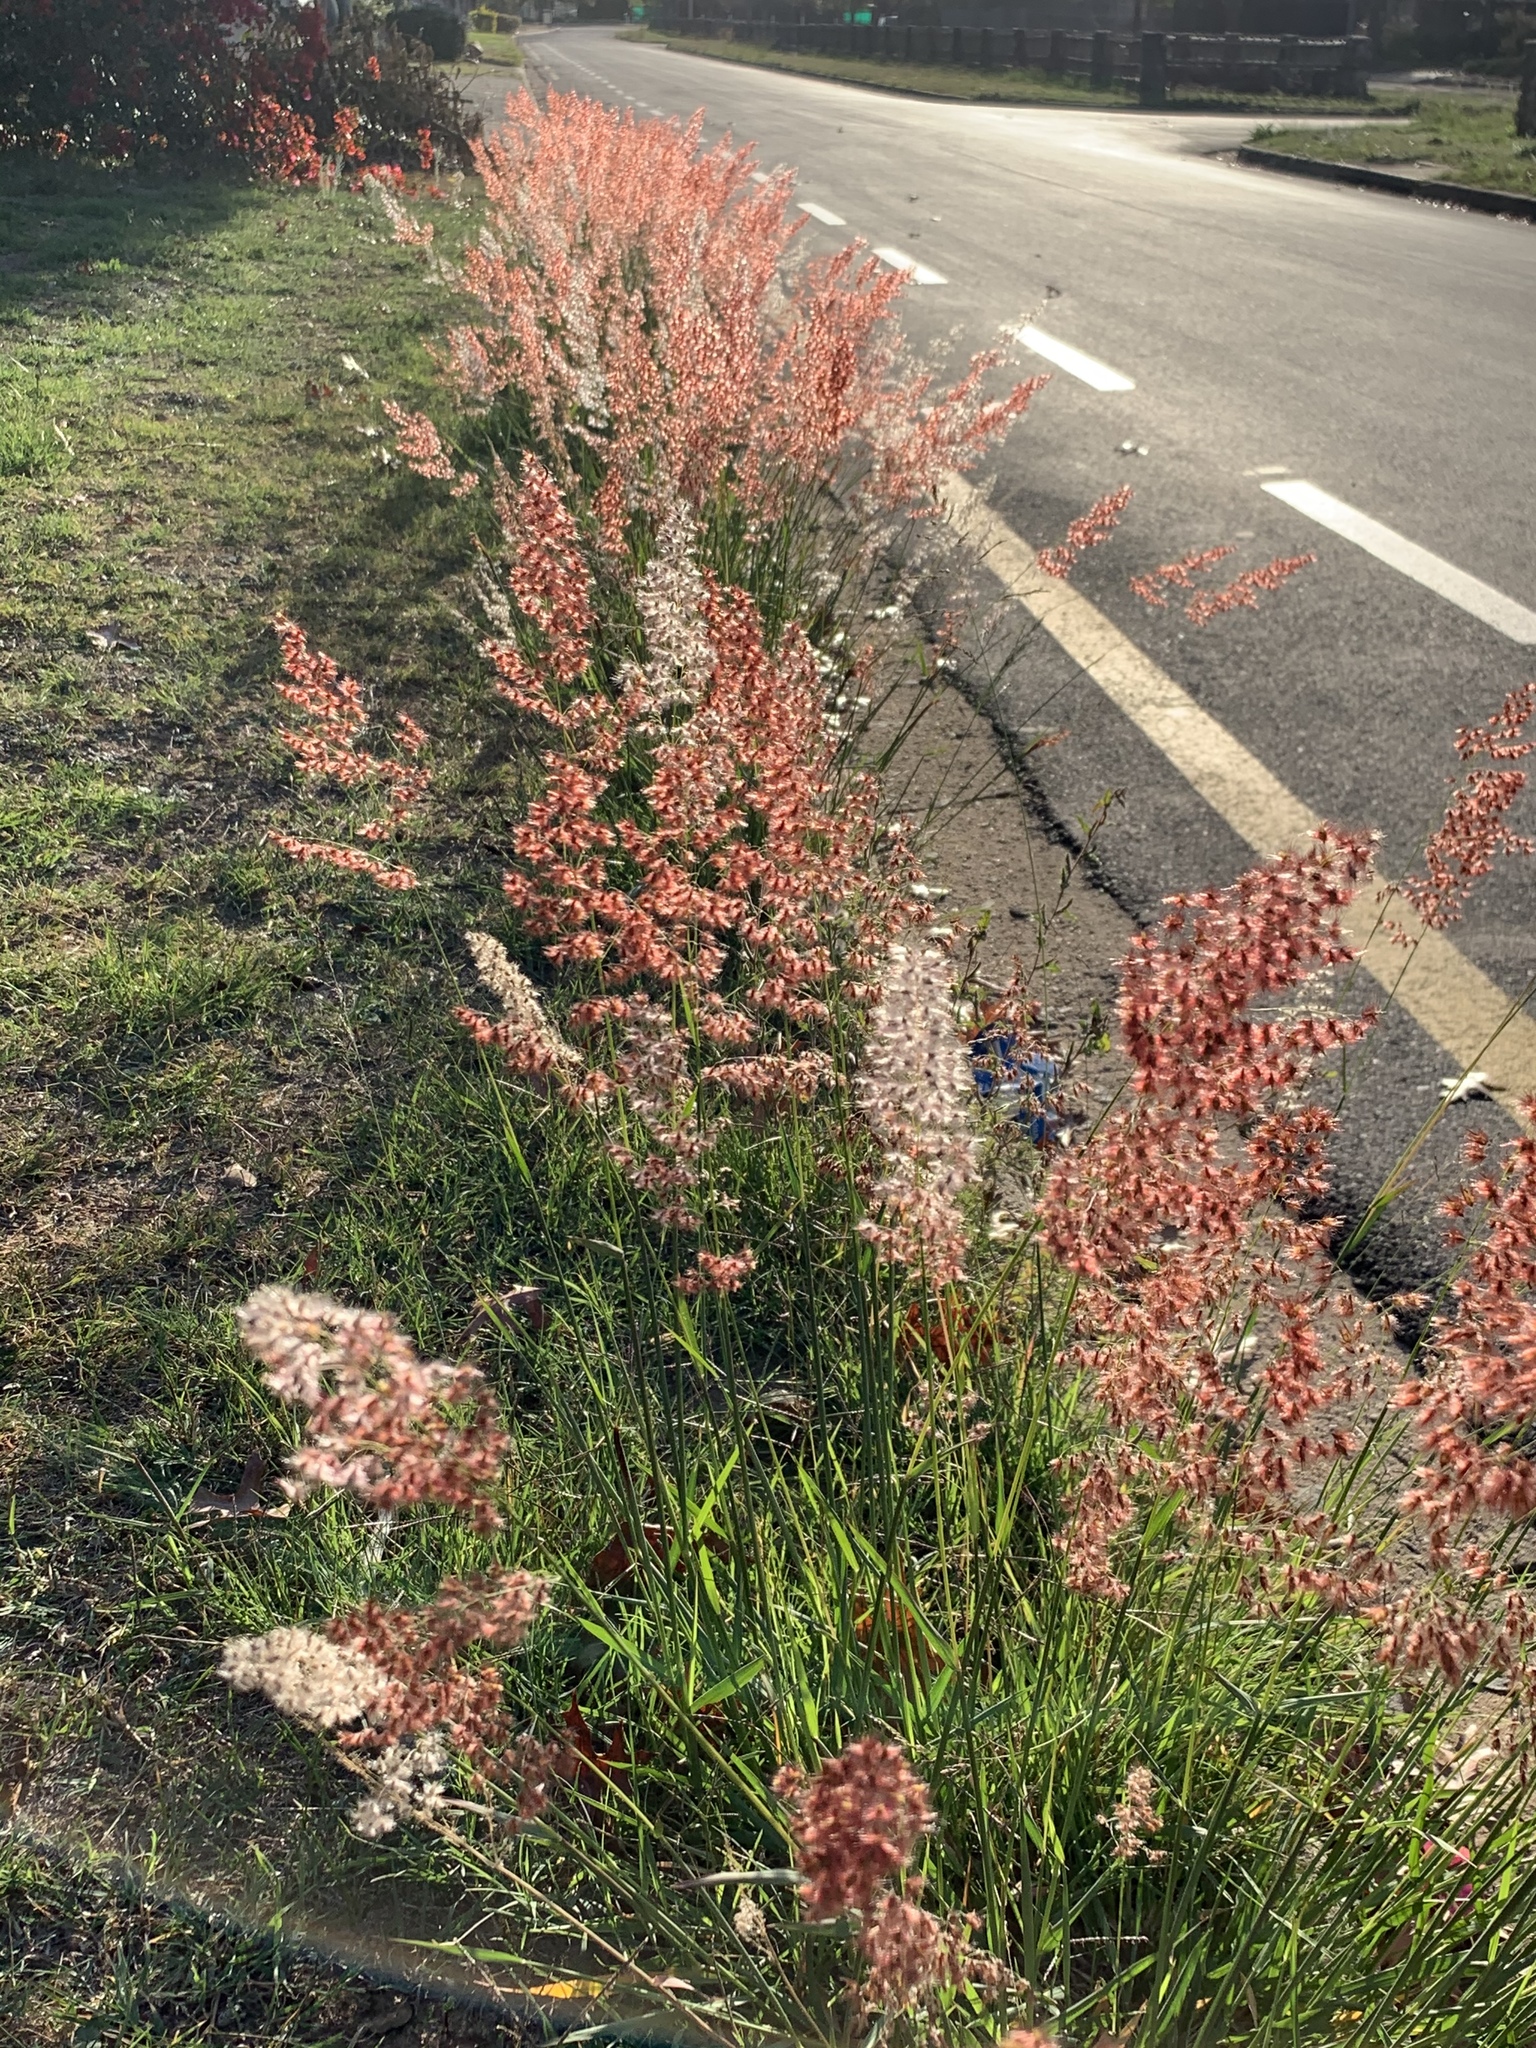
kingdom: Plantae
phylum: Tracheophyta
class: Liliopsida
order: Poales
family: Poaceae
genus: Melinis
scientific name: Melinis repens
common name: Rose natal grass
